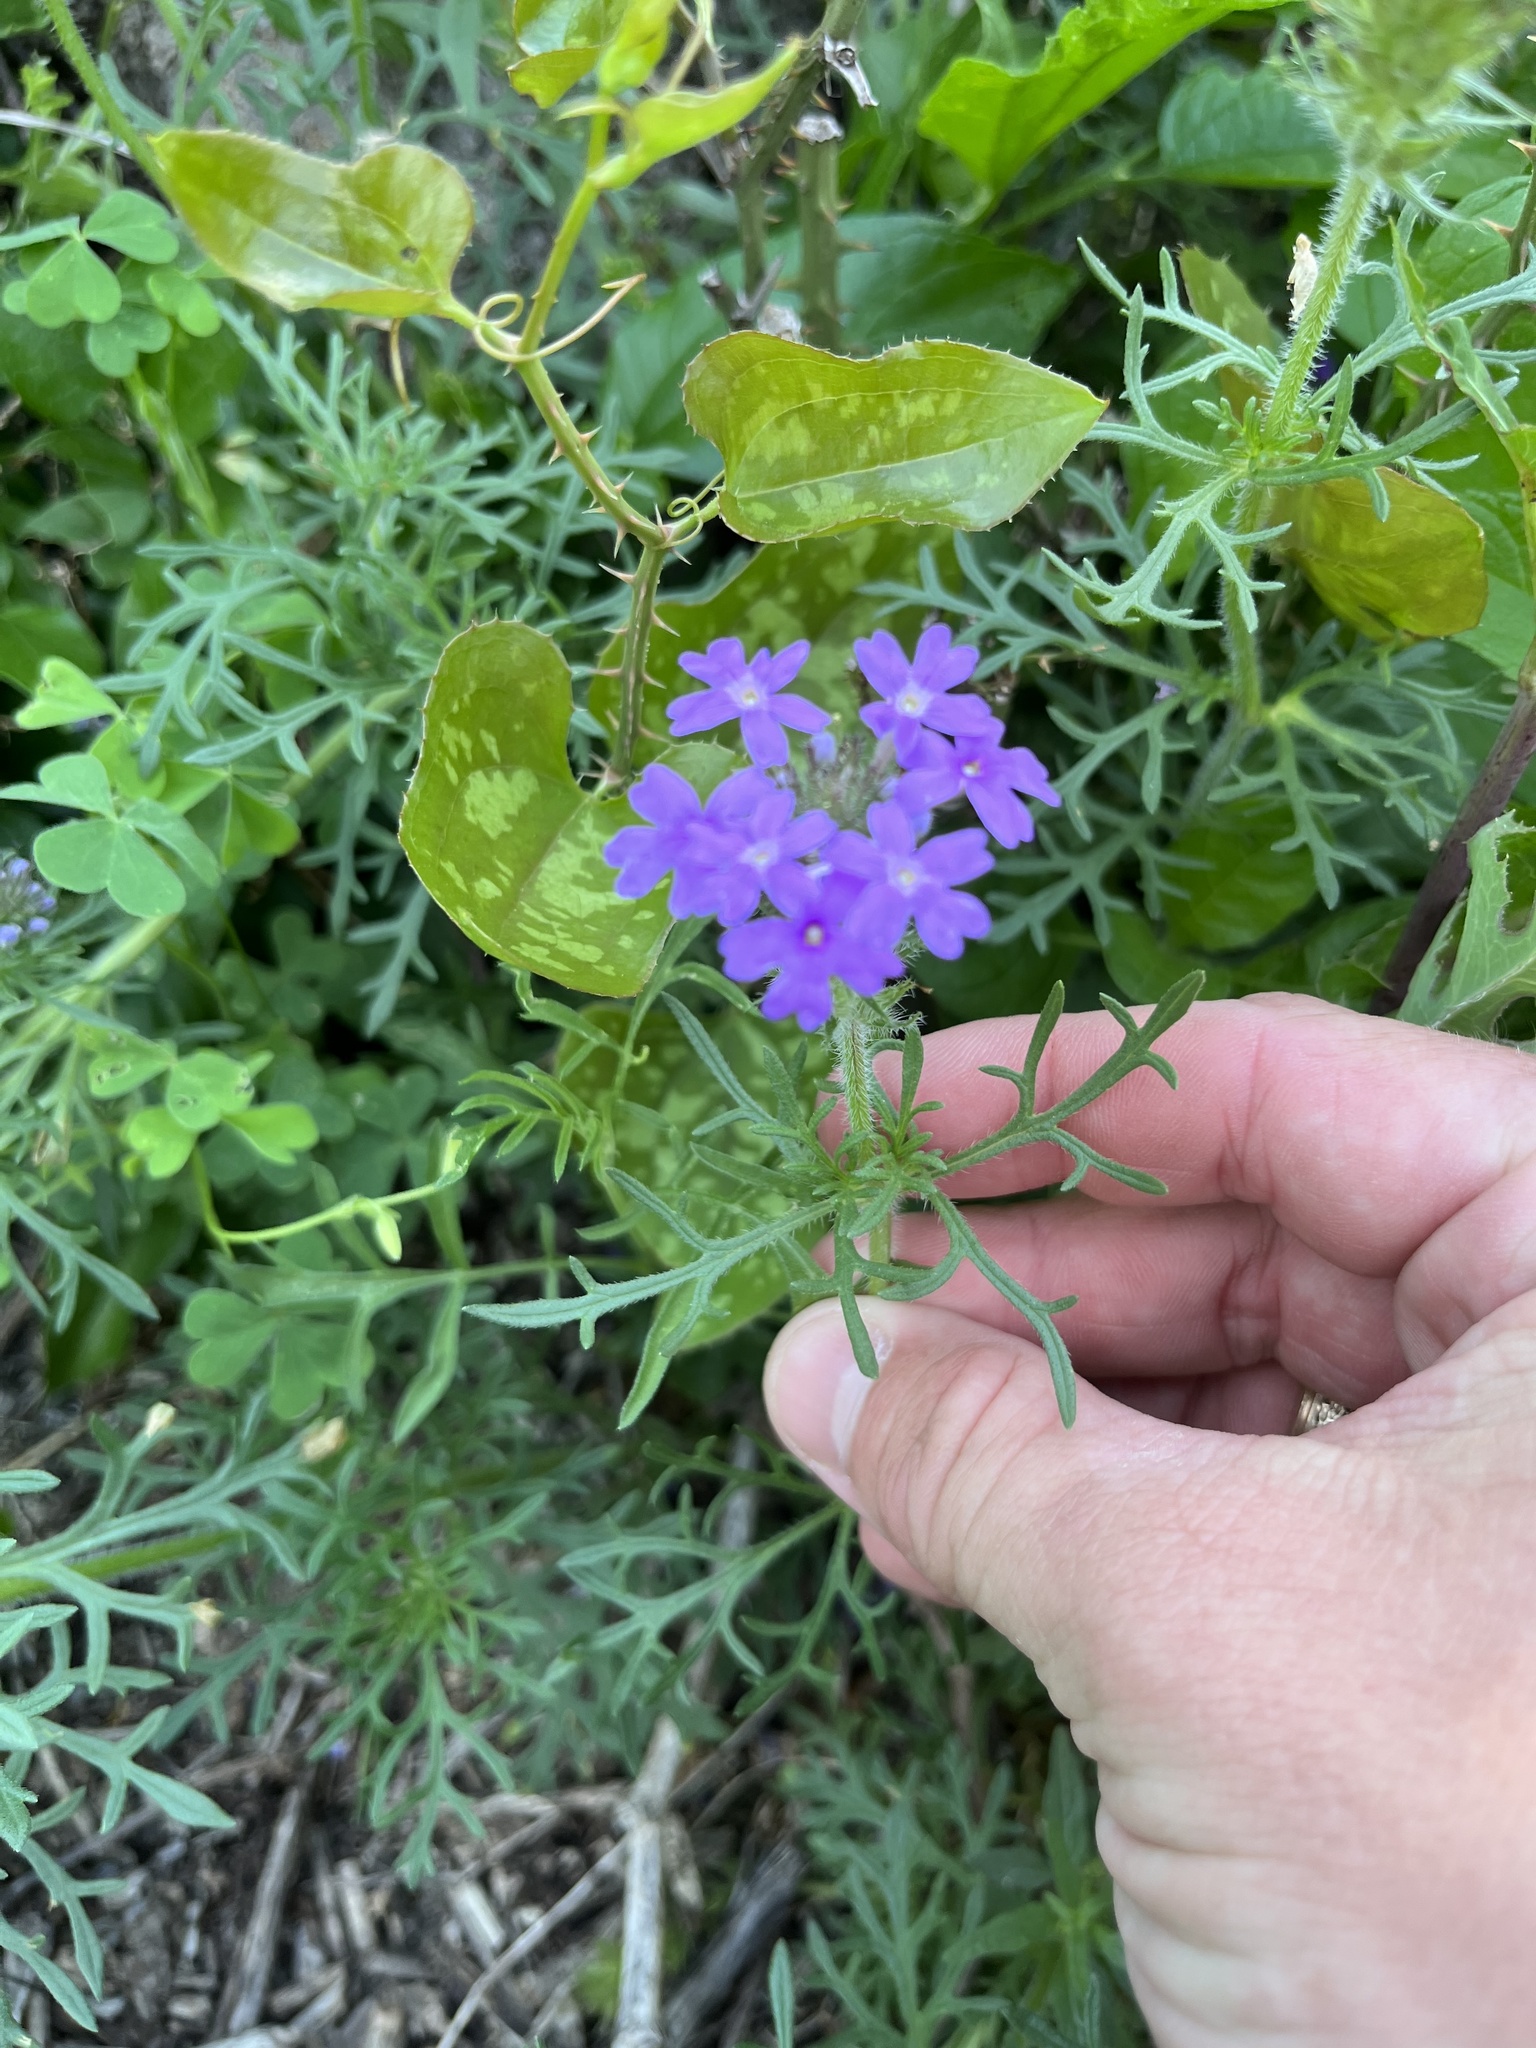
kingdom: Plantae
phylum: Tracheophyta
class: Magnoliopsida
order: Lamiales
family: Verbenaceae
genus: Verbena
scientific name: Verbena bipinnatifida
